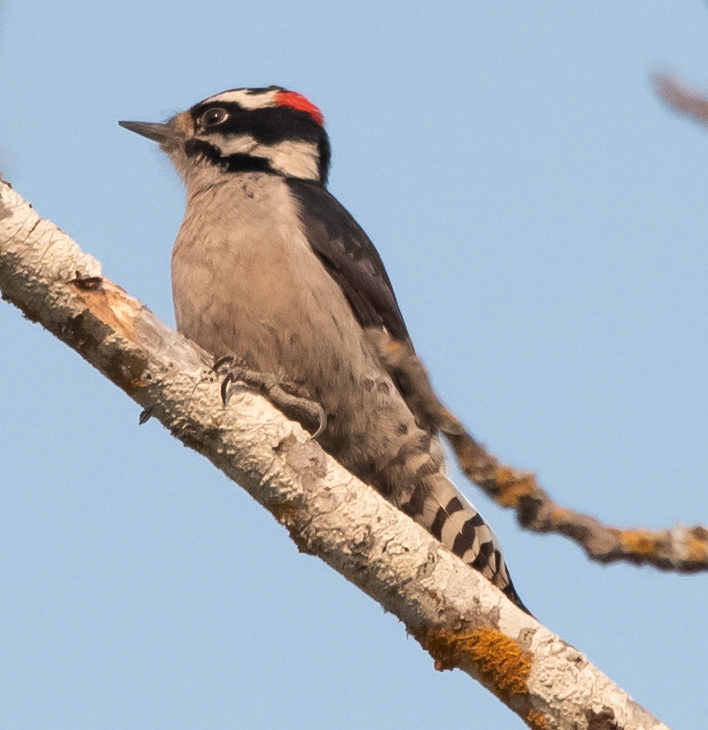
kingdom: Animalia
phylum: Chordata
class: Aves
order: Piciformes
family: Picidae
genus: Dryobates
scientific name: Dryobates pubescens
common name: Downy woodpecker
